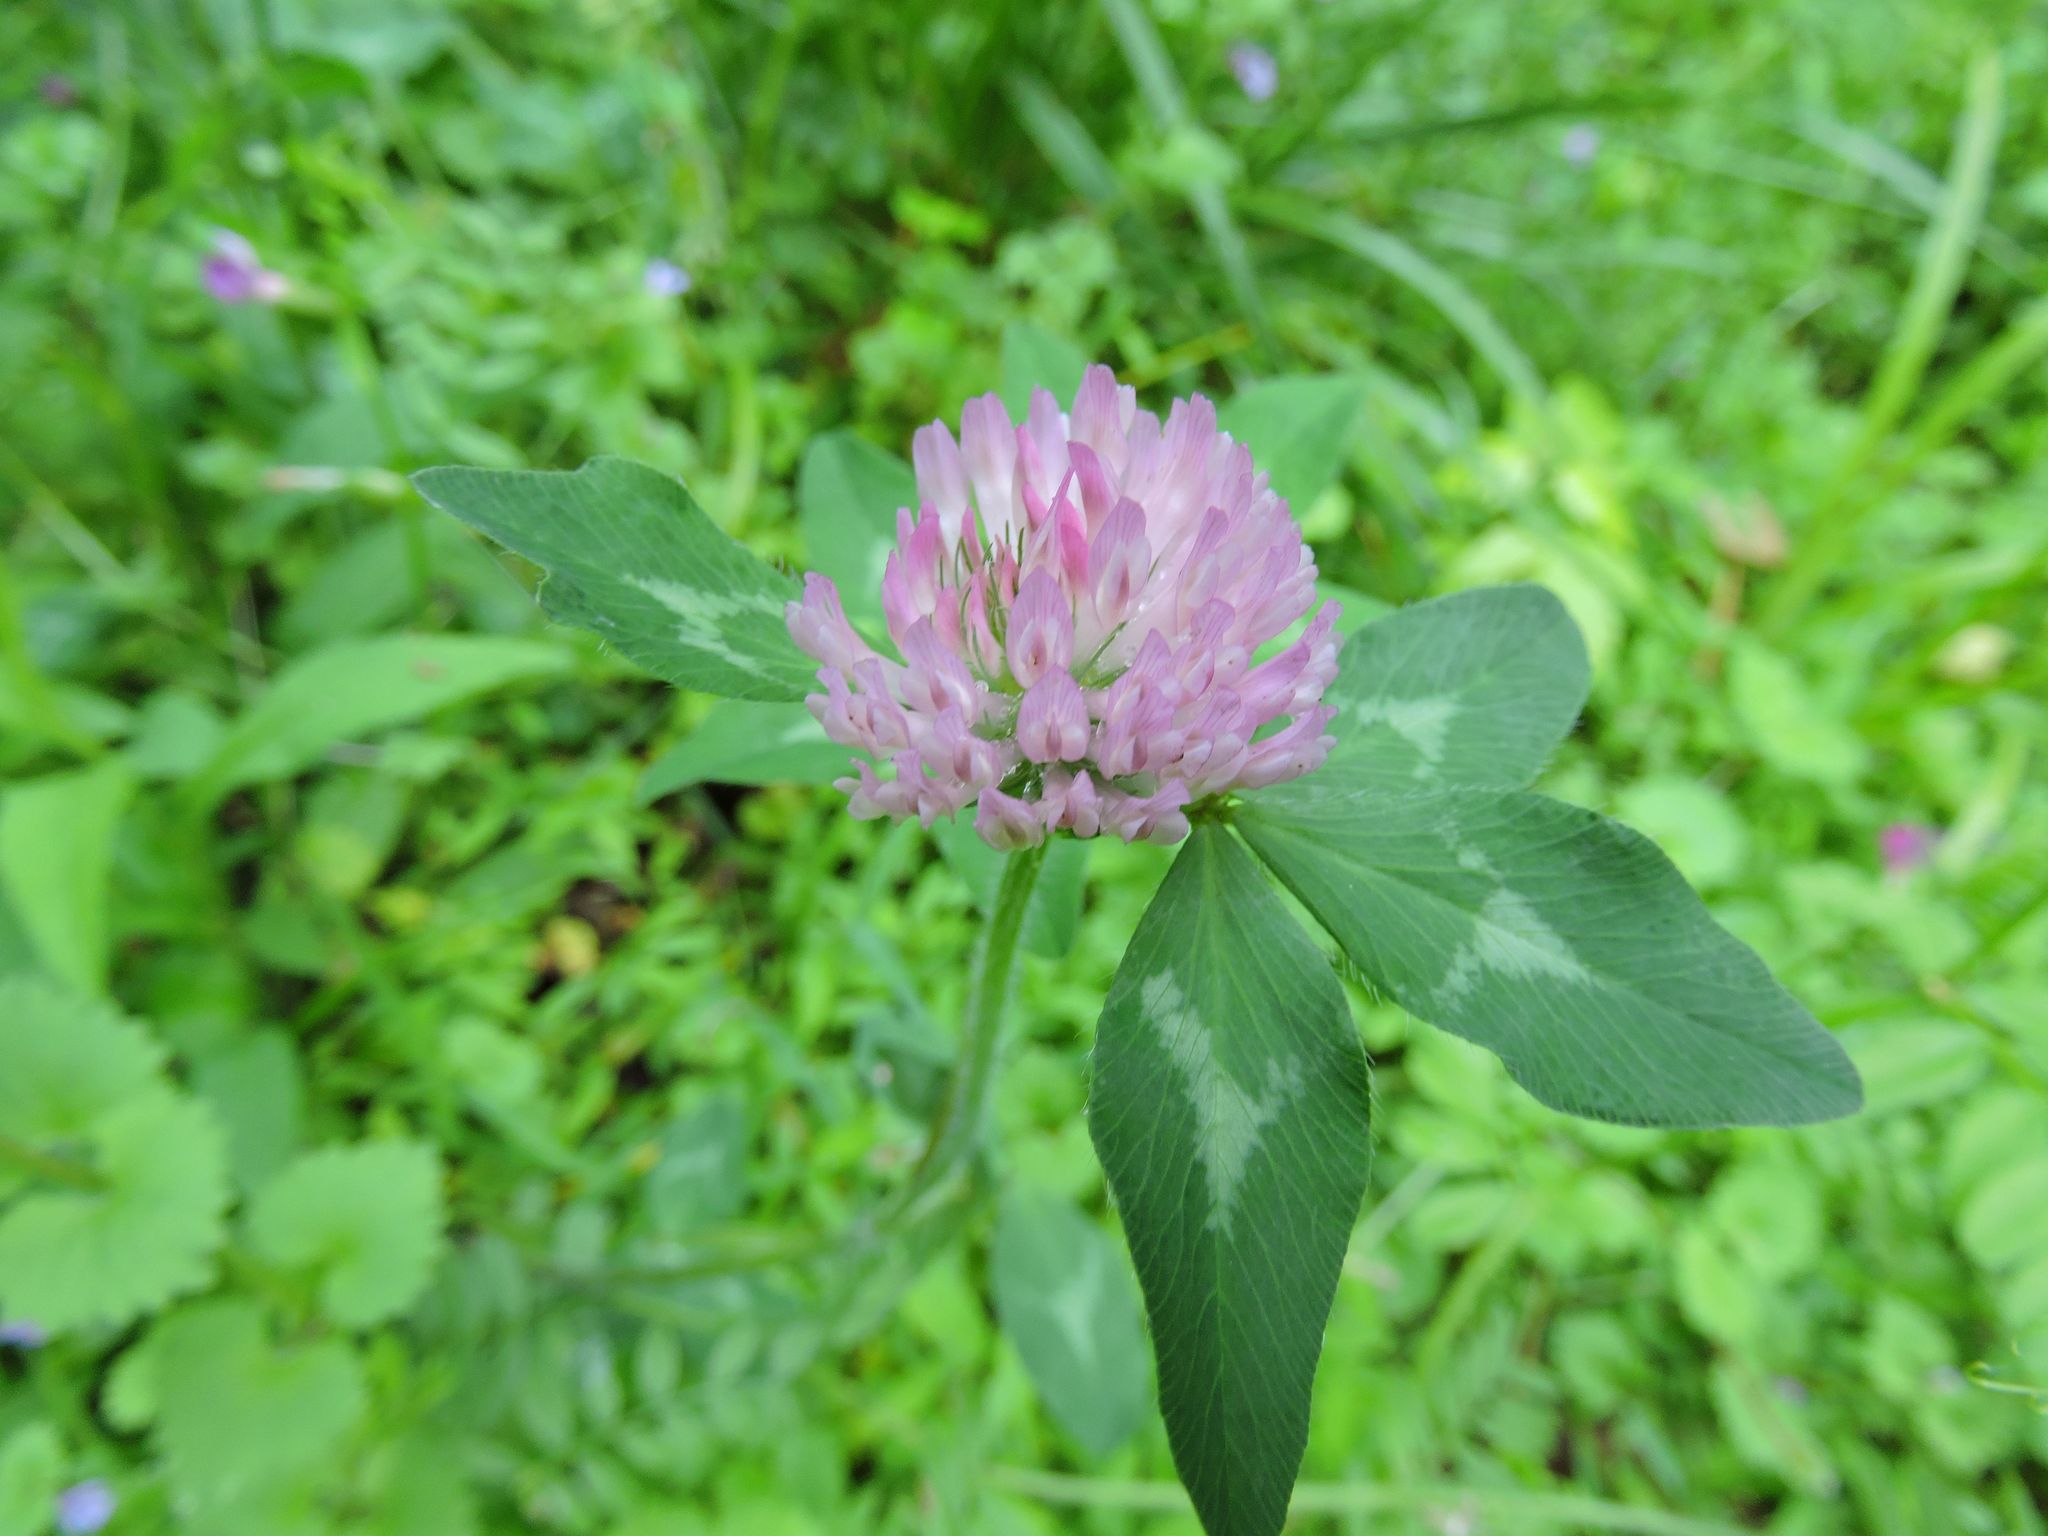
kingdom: Plantae
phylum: Tracheophyta
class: Magnoliopsida
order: Fabales
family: Fabaceae
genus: Trifolium
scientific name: Trifolium pratense
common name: Red clover
